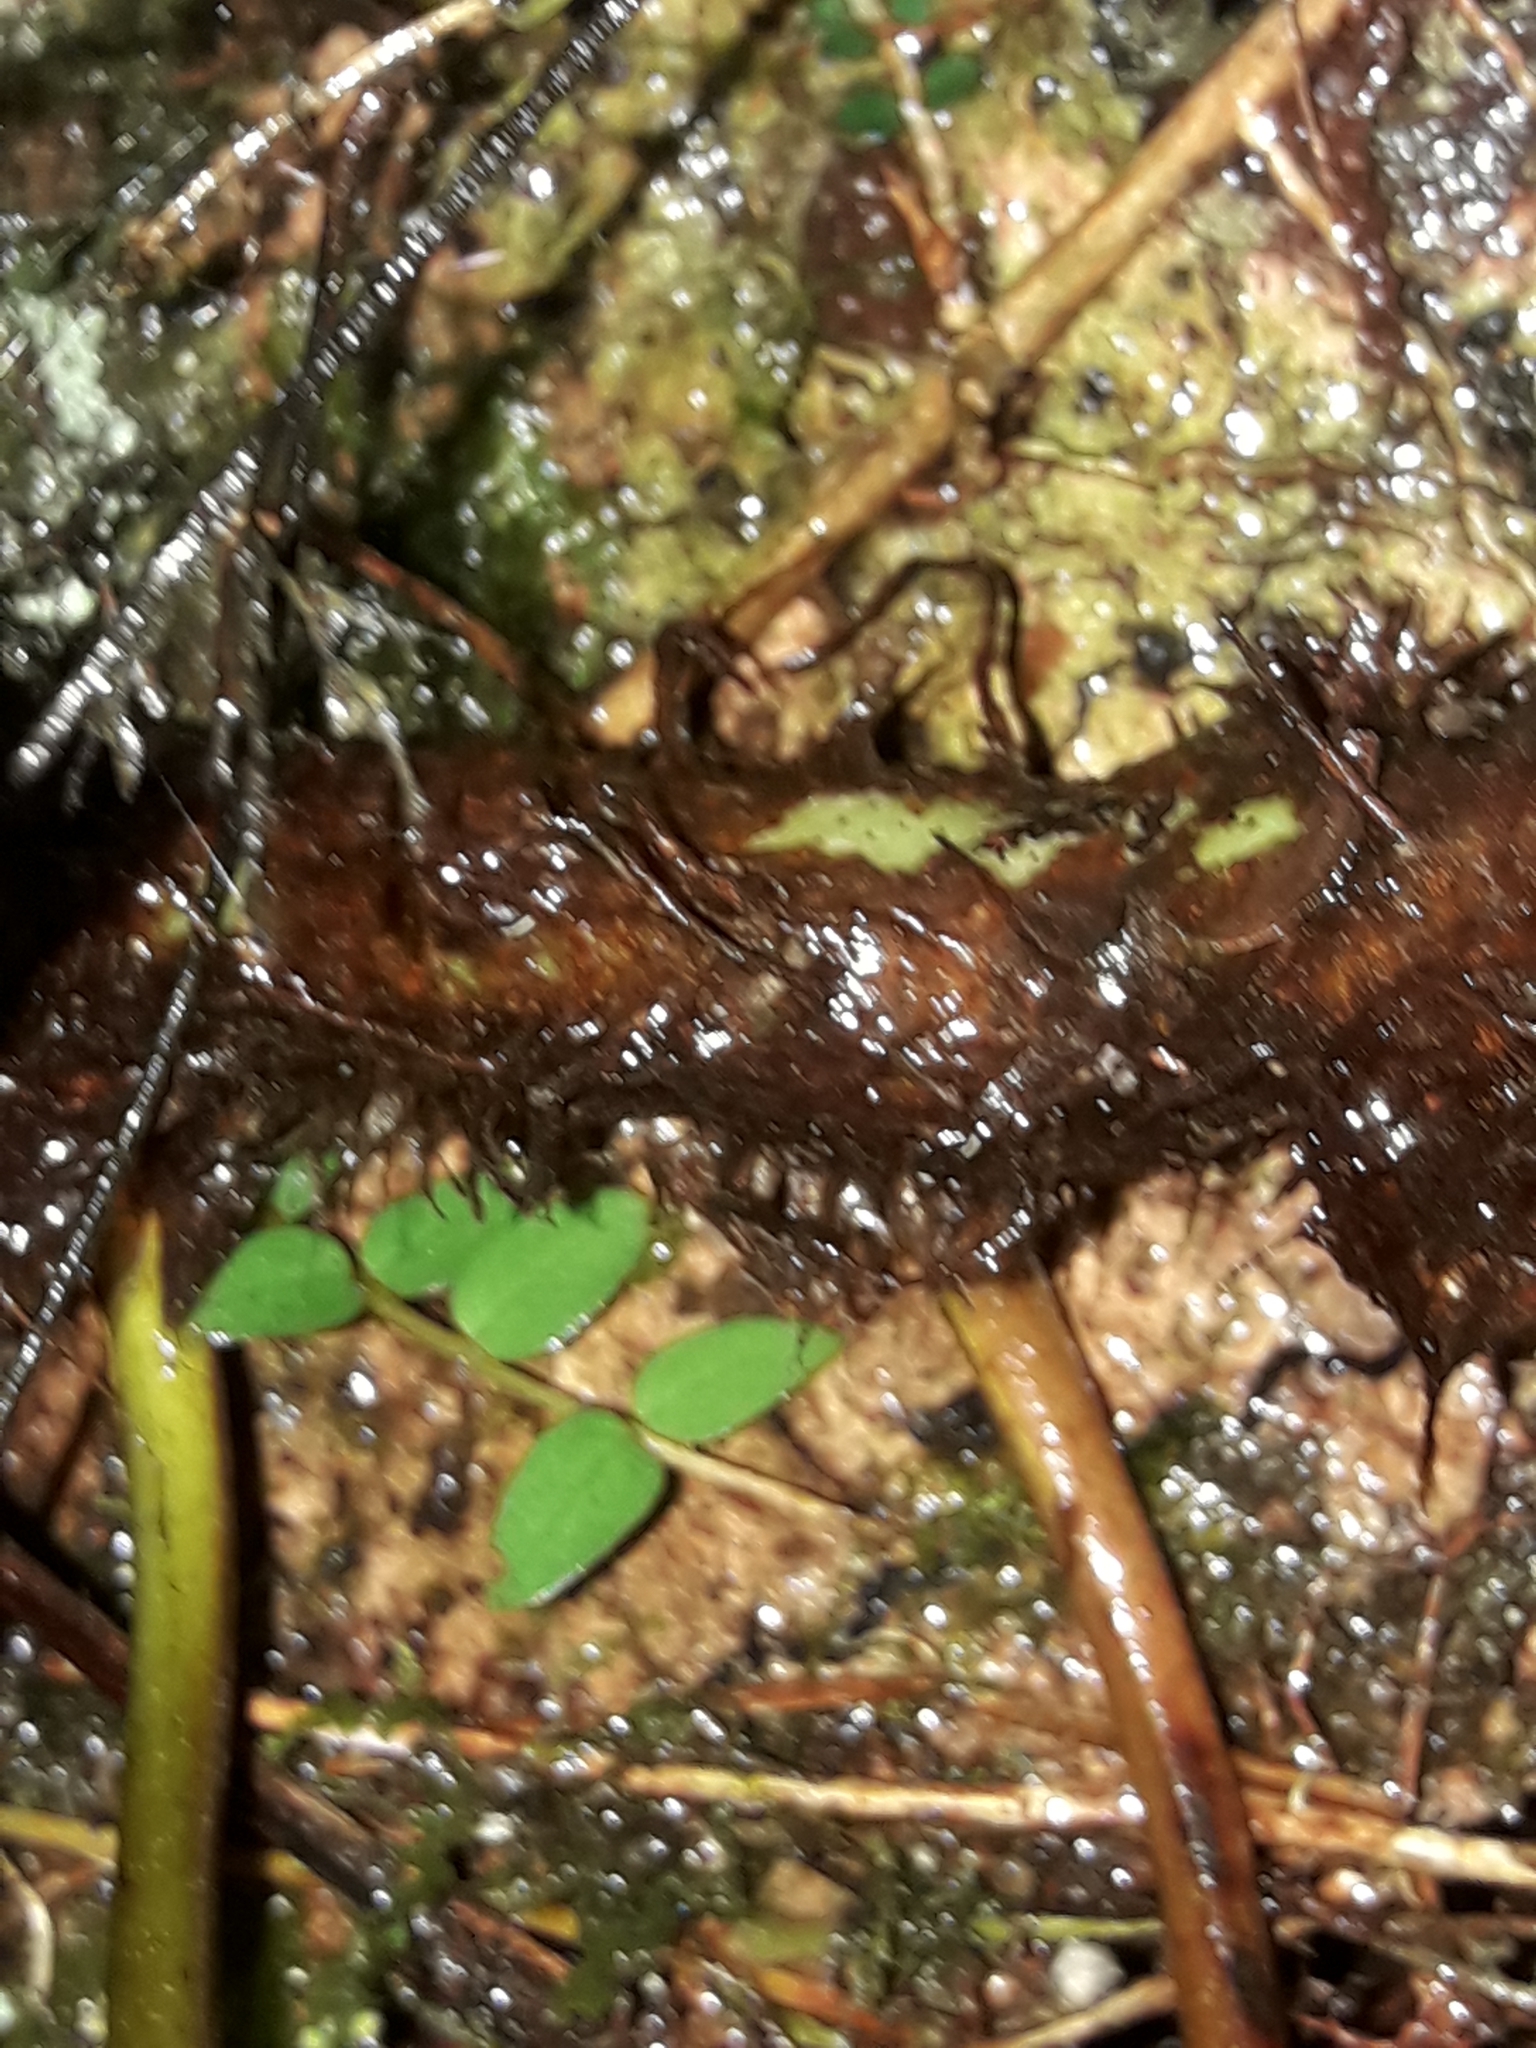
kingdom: Plantae
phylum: Tracheophyta
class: Polypodiopsida
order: Polypodiales
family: Polypodiaceae
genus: Lecanopteris
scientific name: Lecanopteris novae-zealandiae
